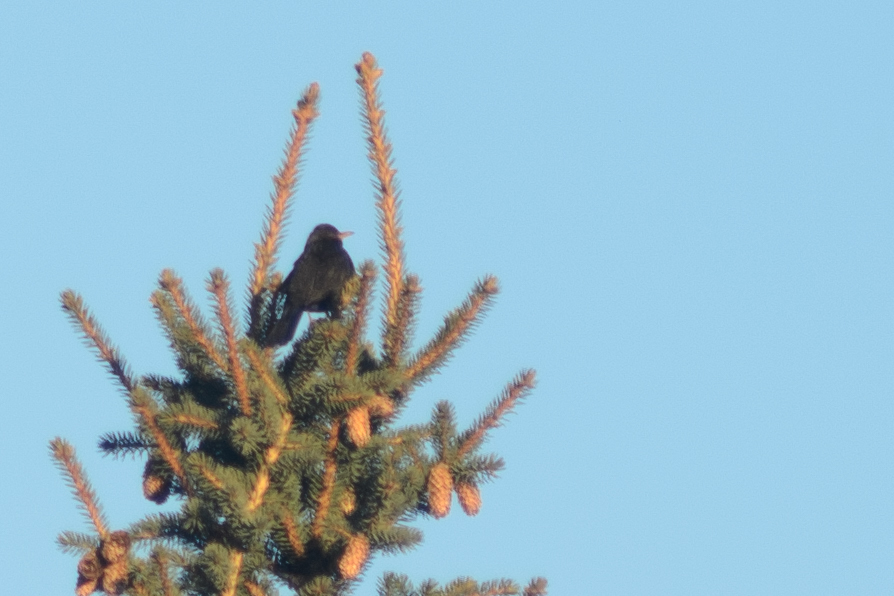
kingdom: Animalia
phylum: Chordata
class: Aves
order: Passeriformes
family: Turdidae
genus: Turdus
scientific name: Turdus merula
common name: Common blackbird
